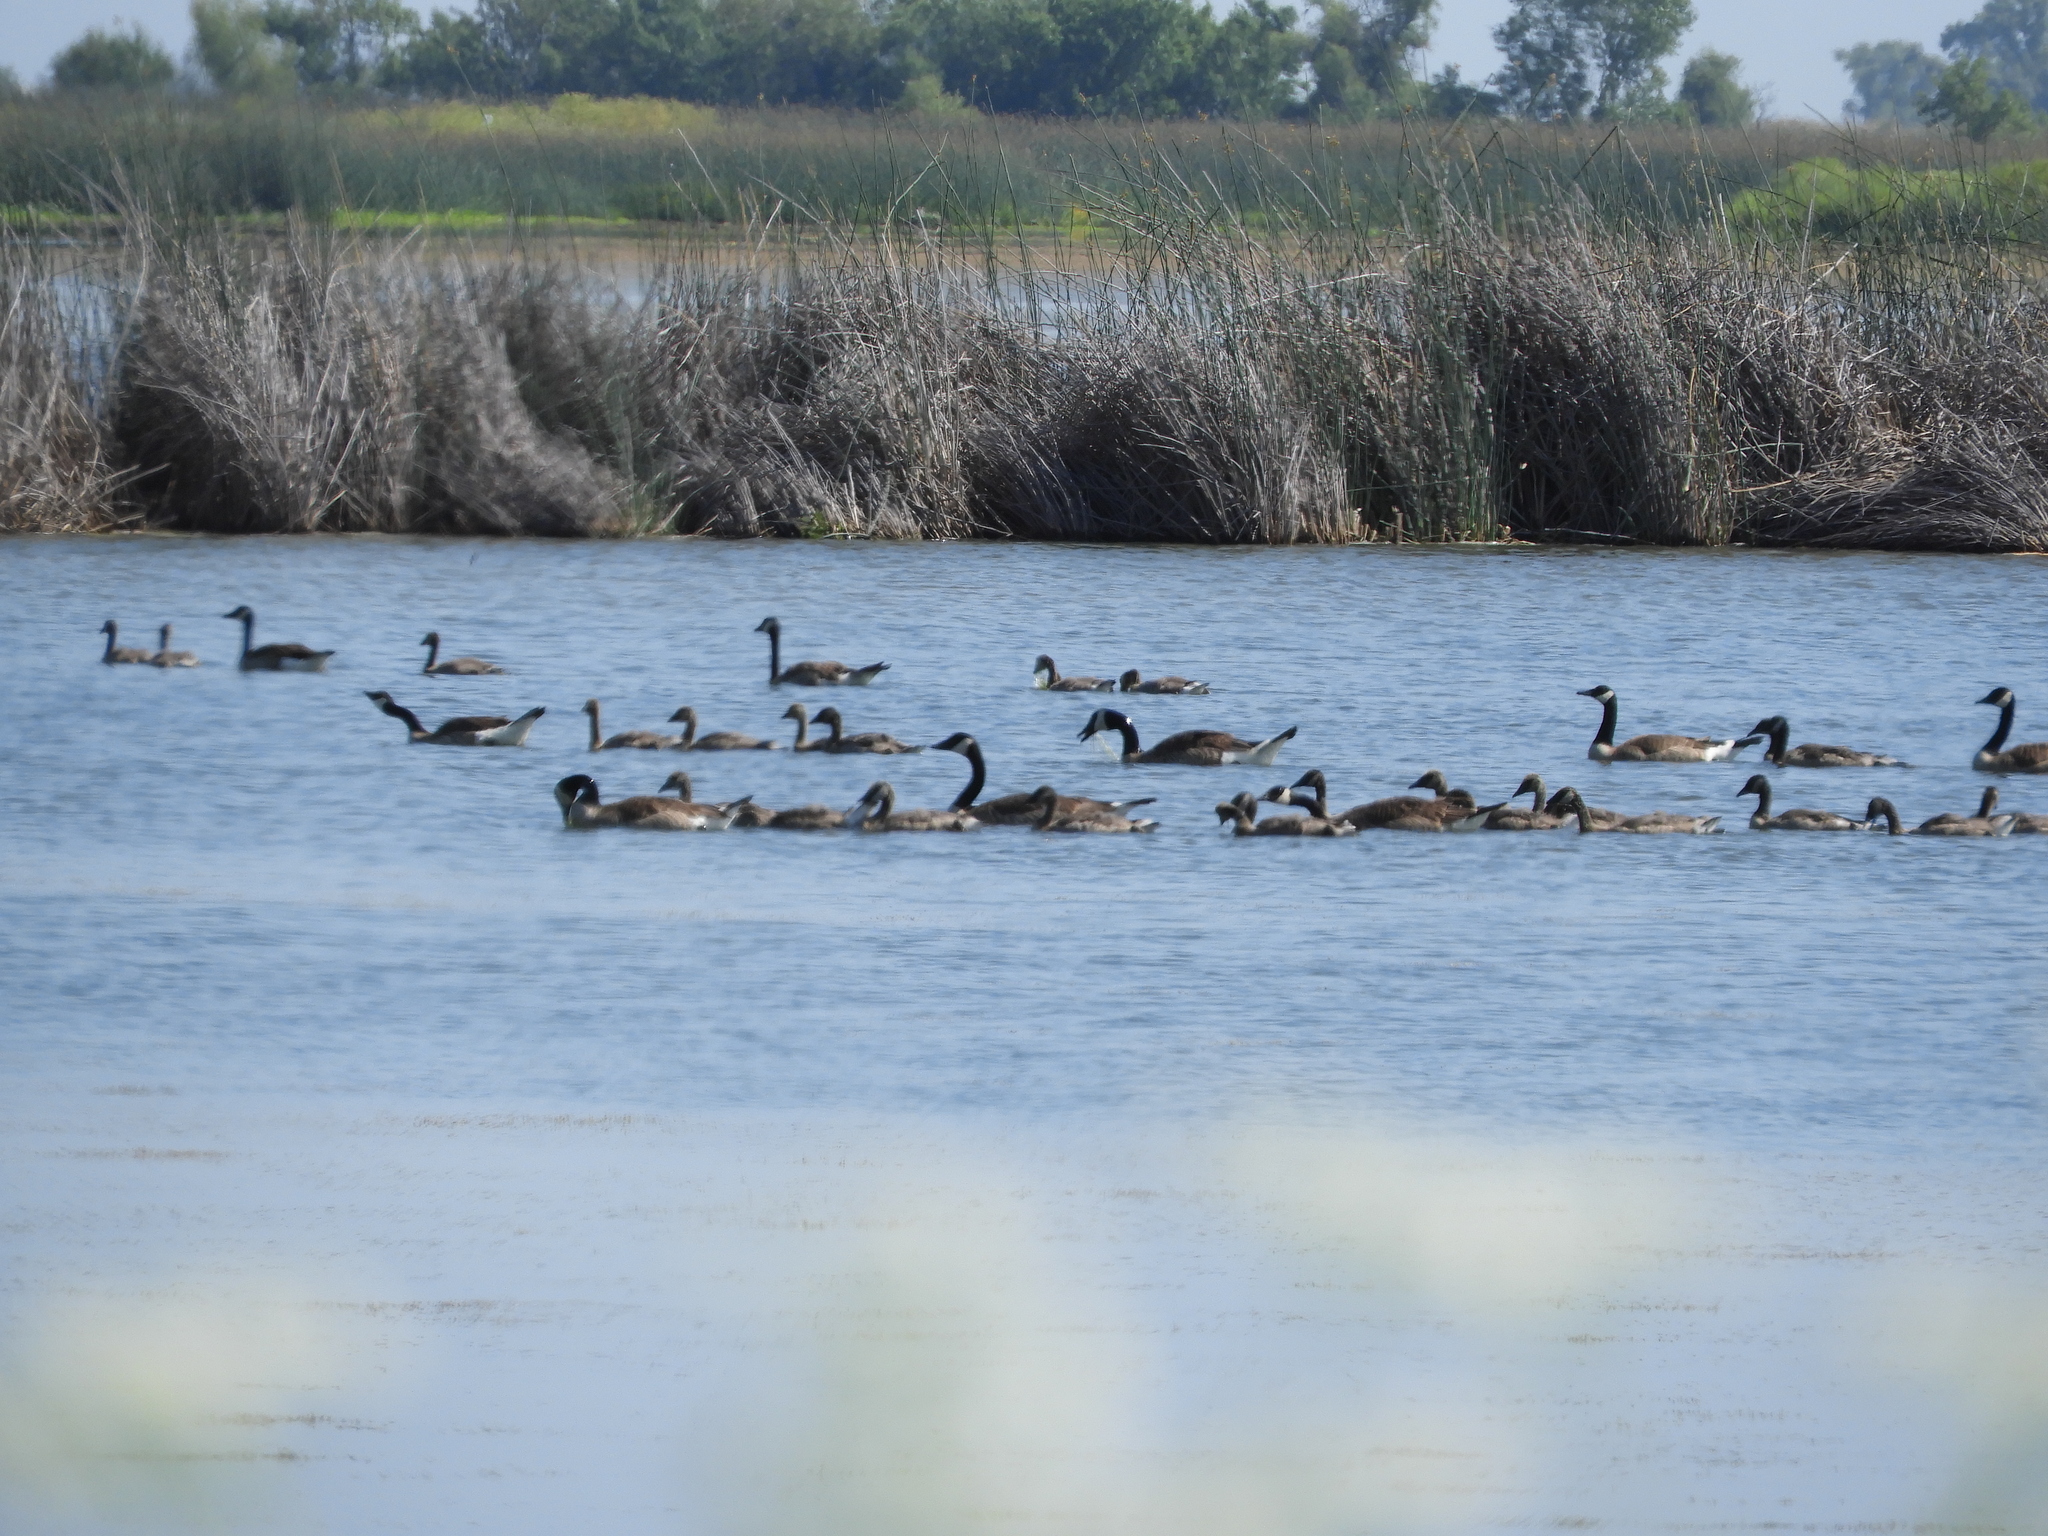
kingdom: Animalia
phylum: Chordata
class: Aves
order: Anseriformes
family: Anatidae
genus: Branta
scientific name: Branta canadensis
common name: Canada goose
